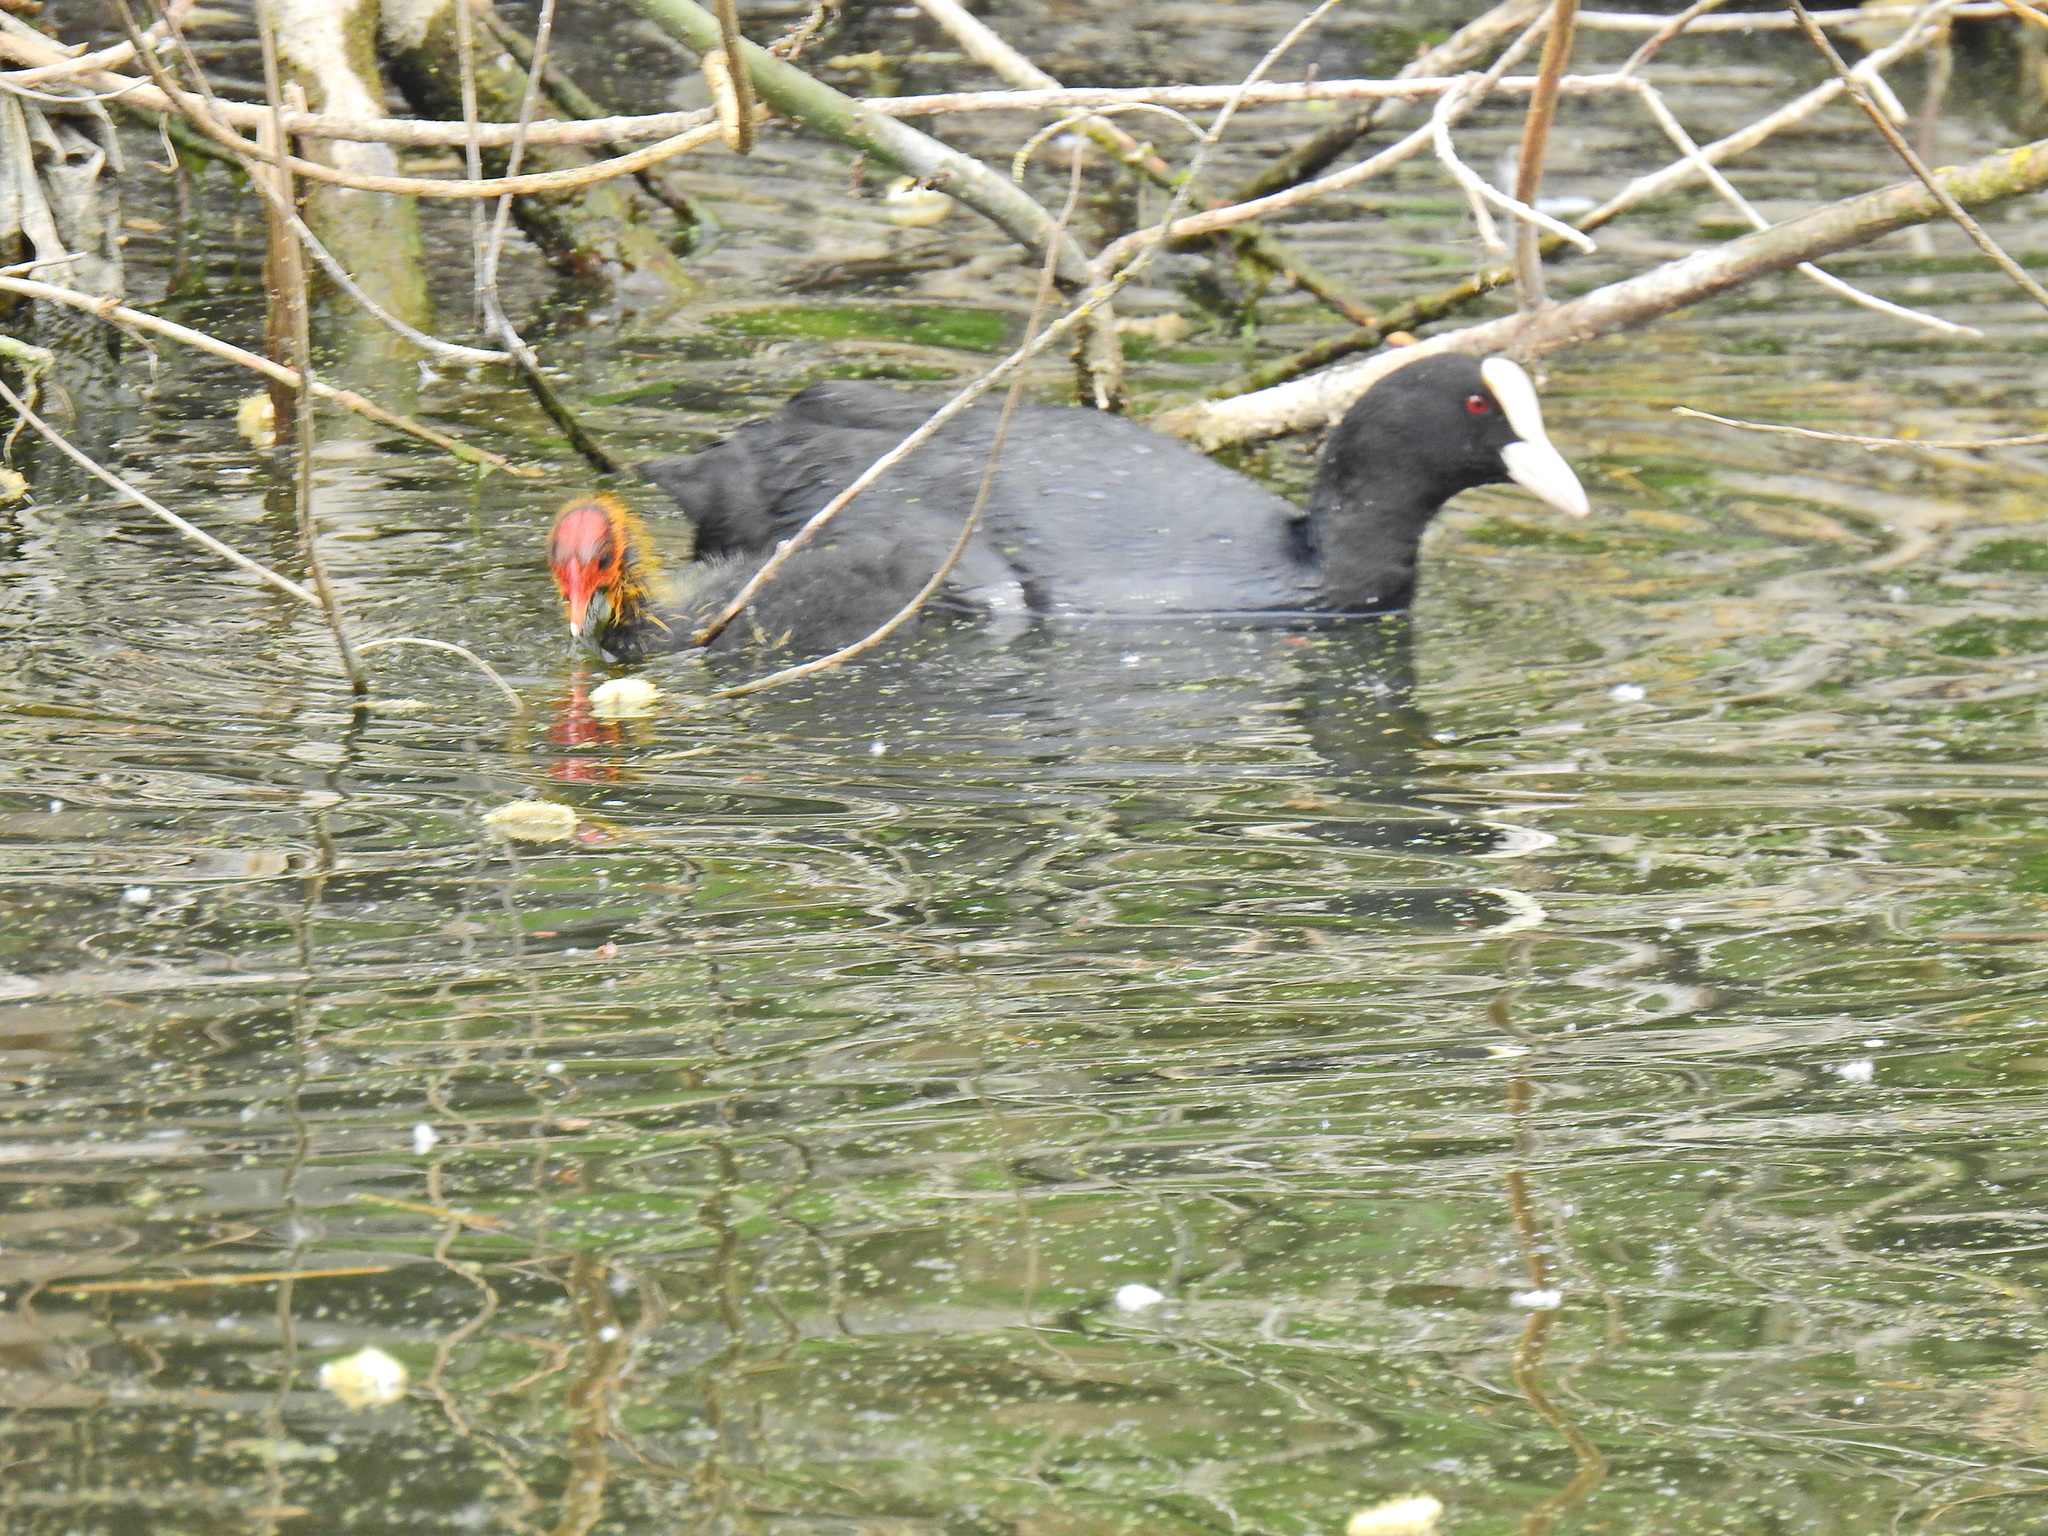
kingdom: Animalia
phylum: Chordata
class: Aves
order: Gruiformes
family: Rallidae
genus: Fulica
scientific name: Fulica atra
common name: Eurasian coot
